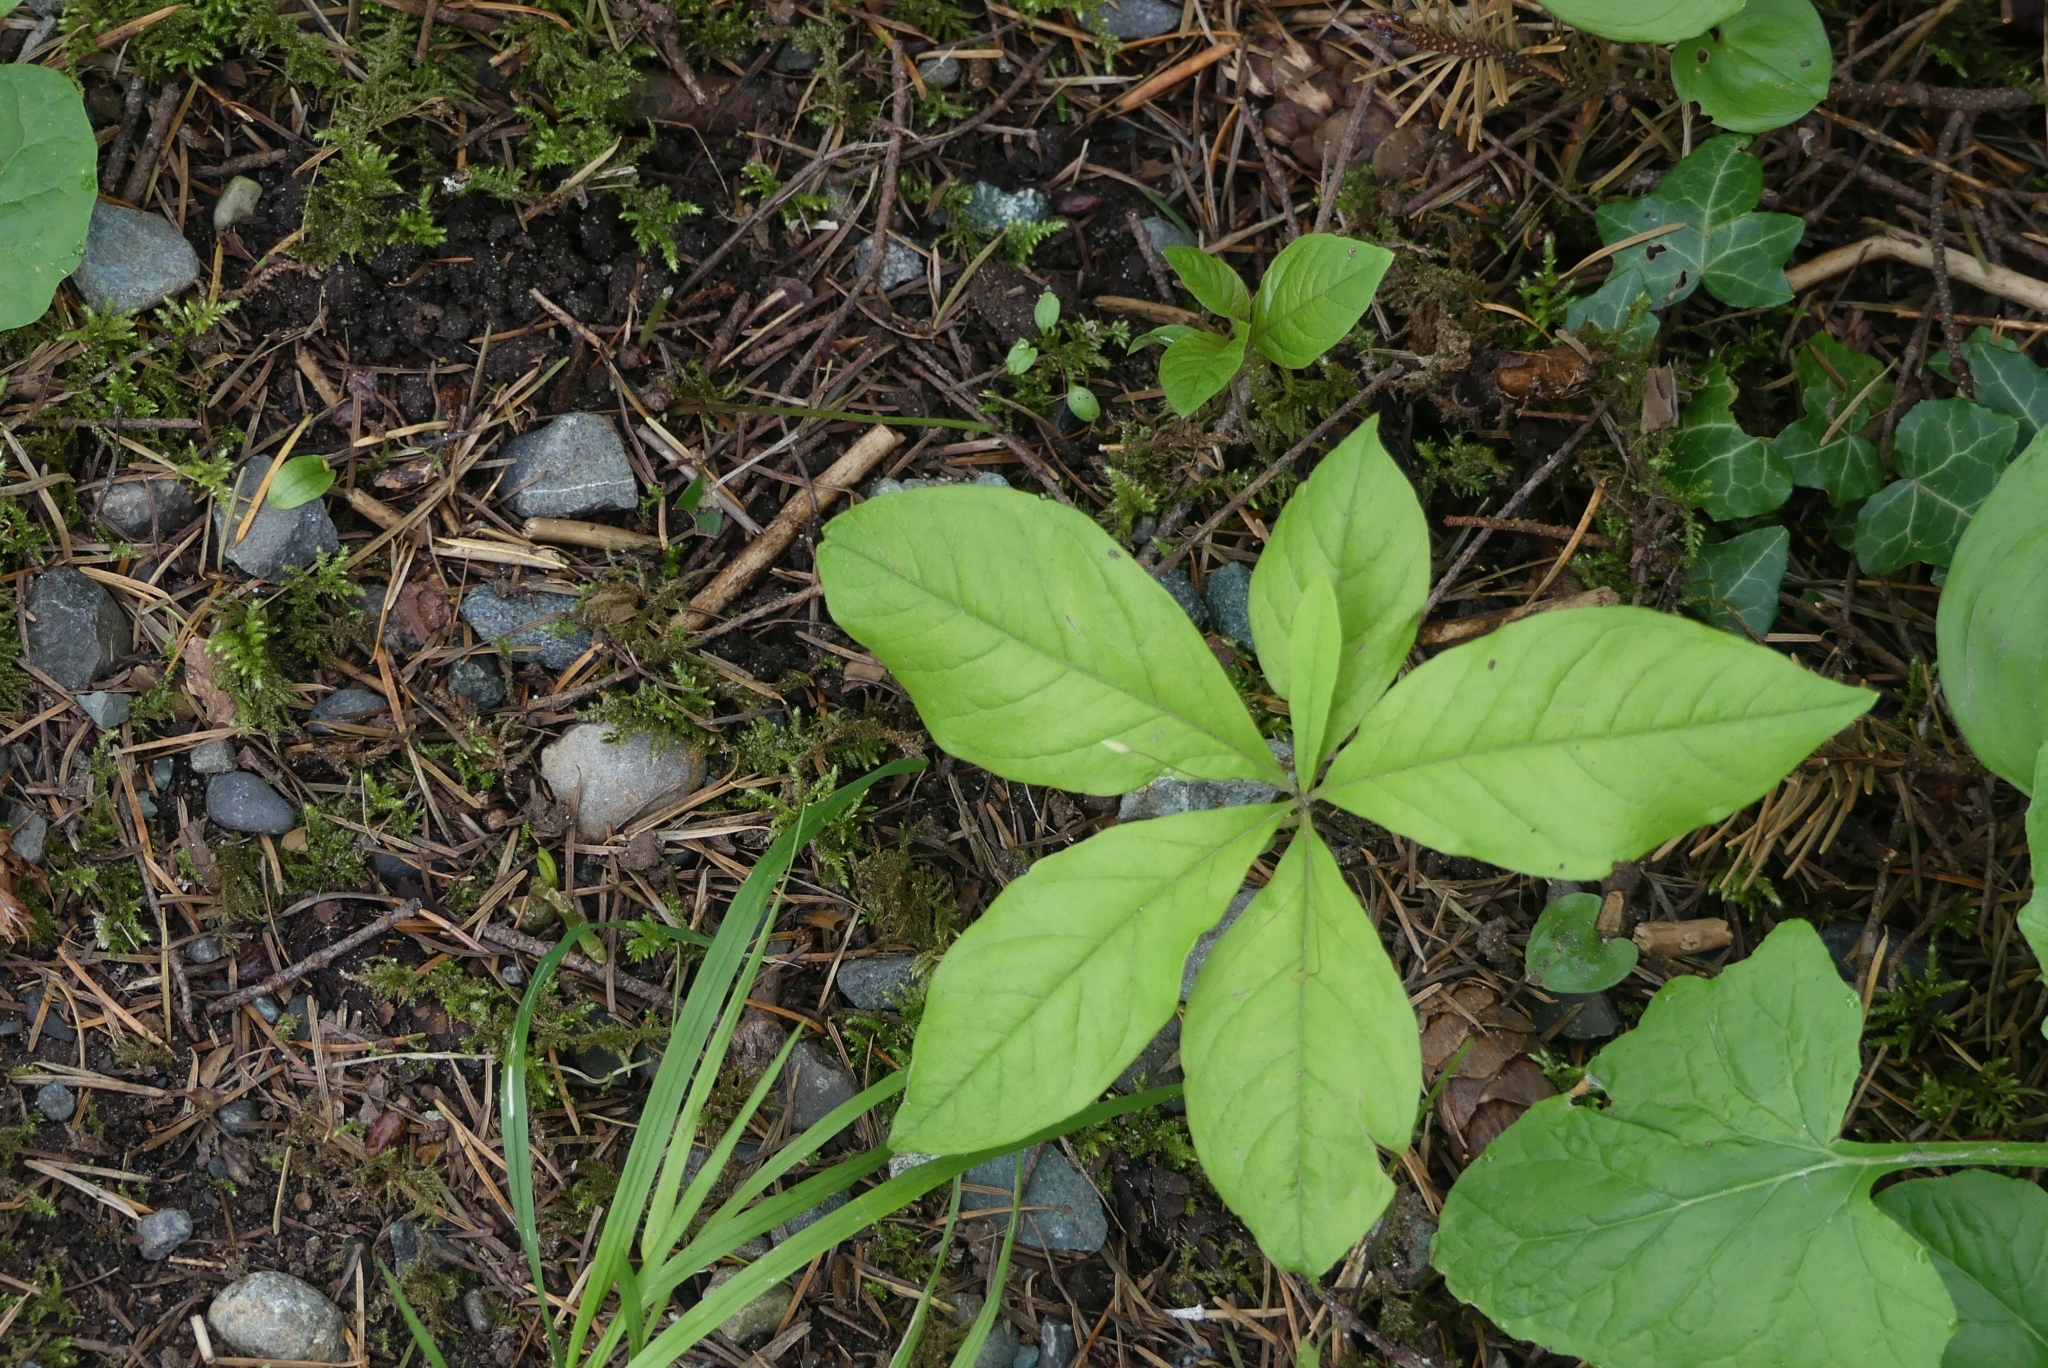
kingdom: Plantae
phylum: Tracheophyta
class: Magnoliopsida
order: Ericales
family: Primulaceae
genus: Lysimachia
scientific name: Lysimachia latifolia
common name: Pacific starflower
